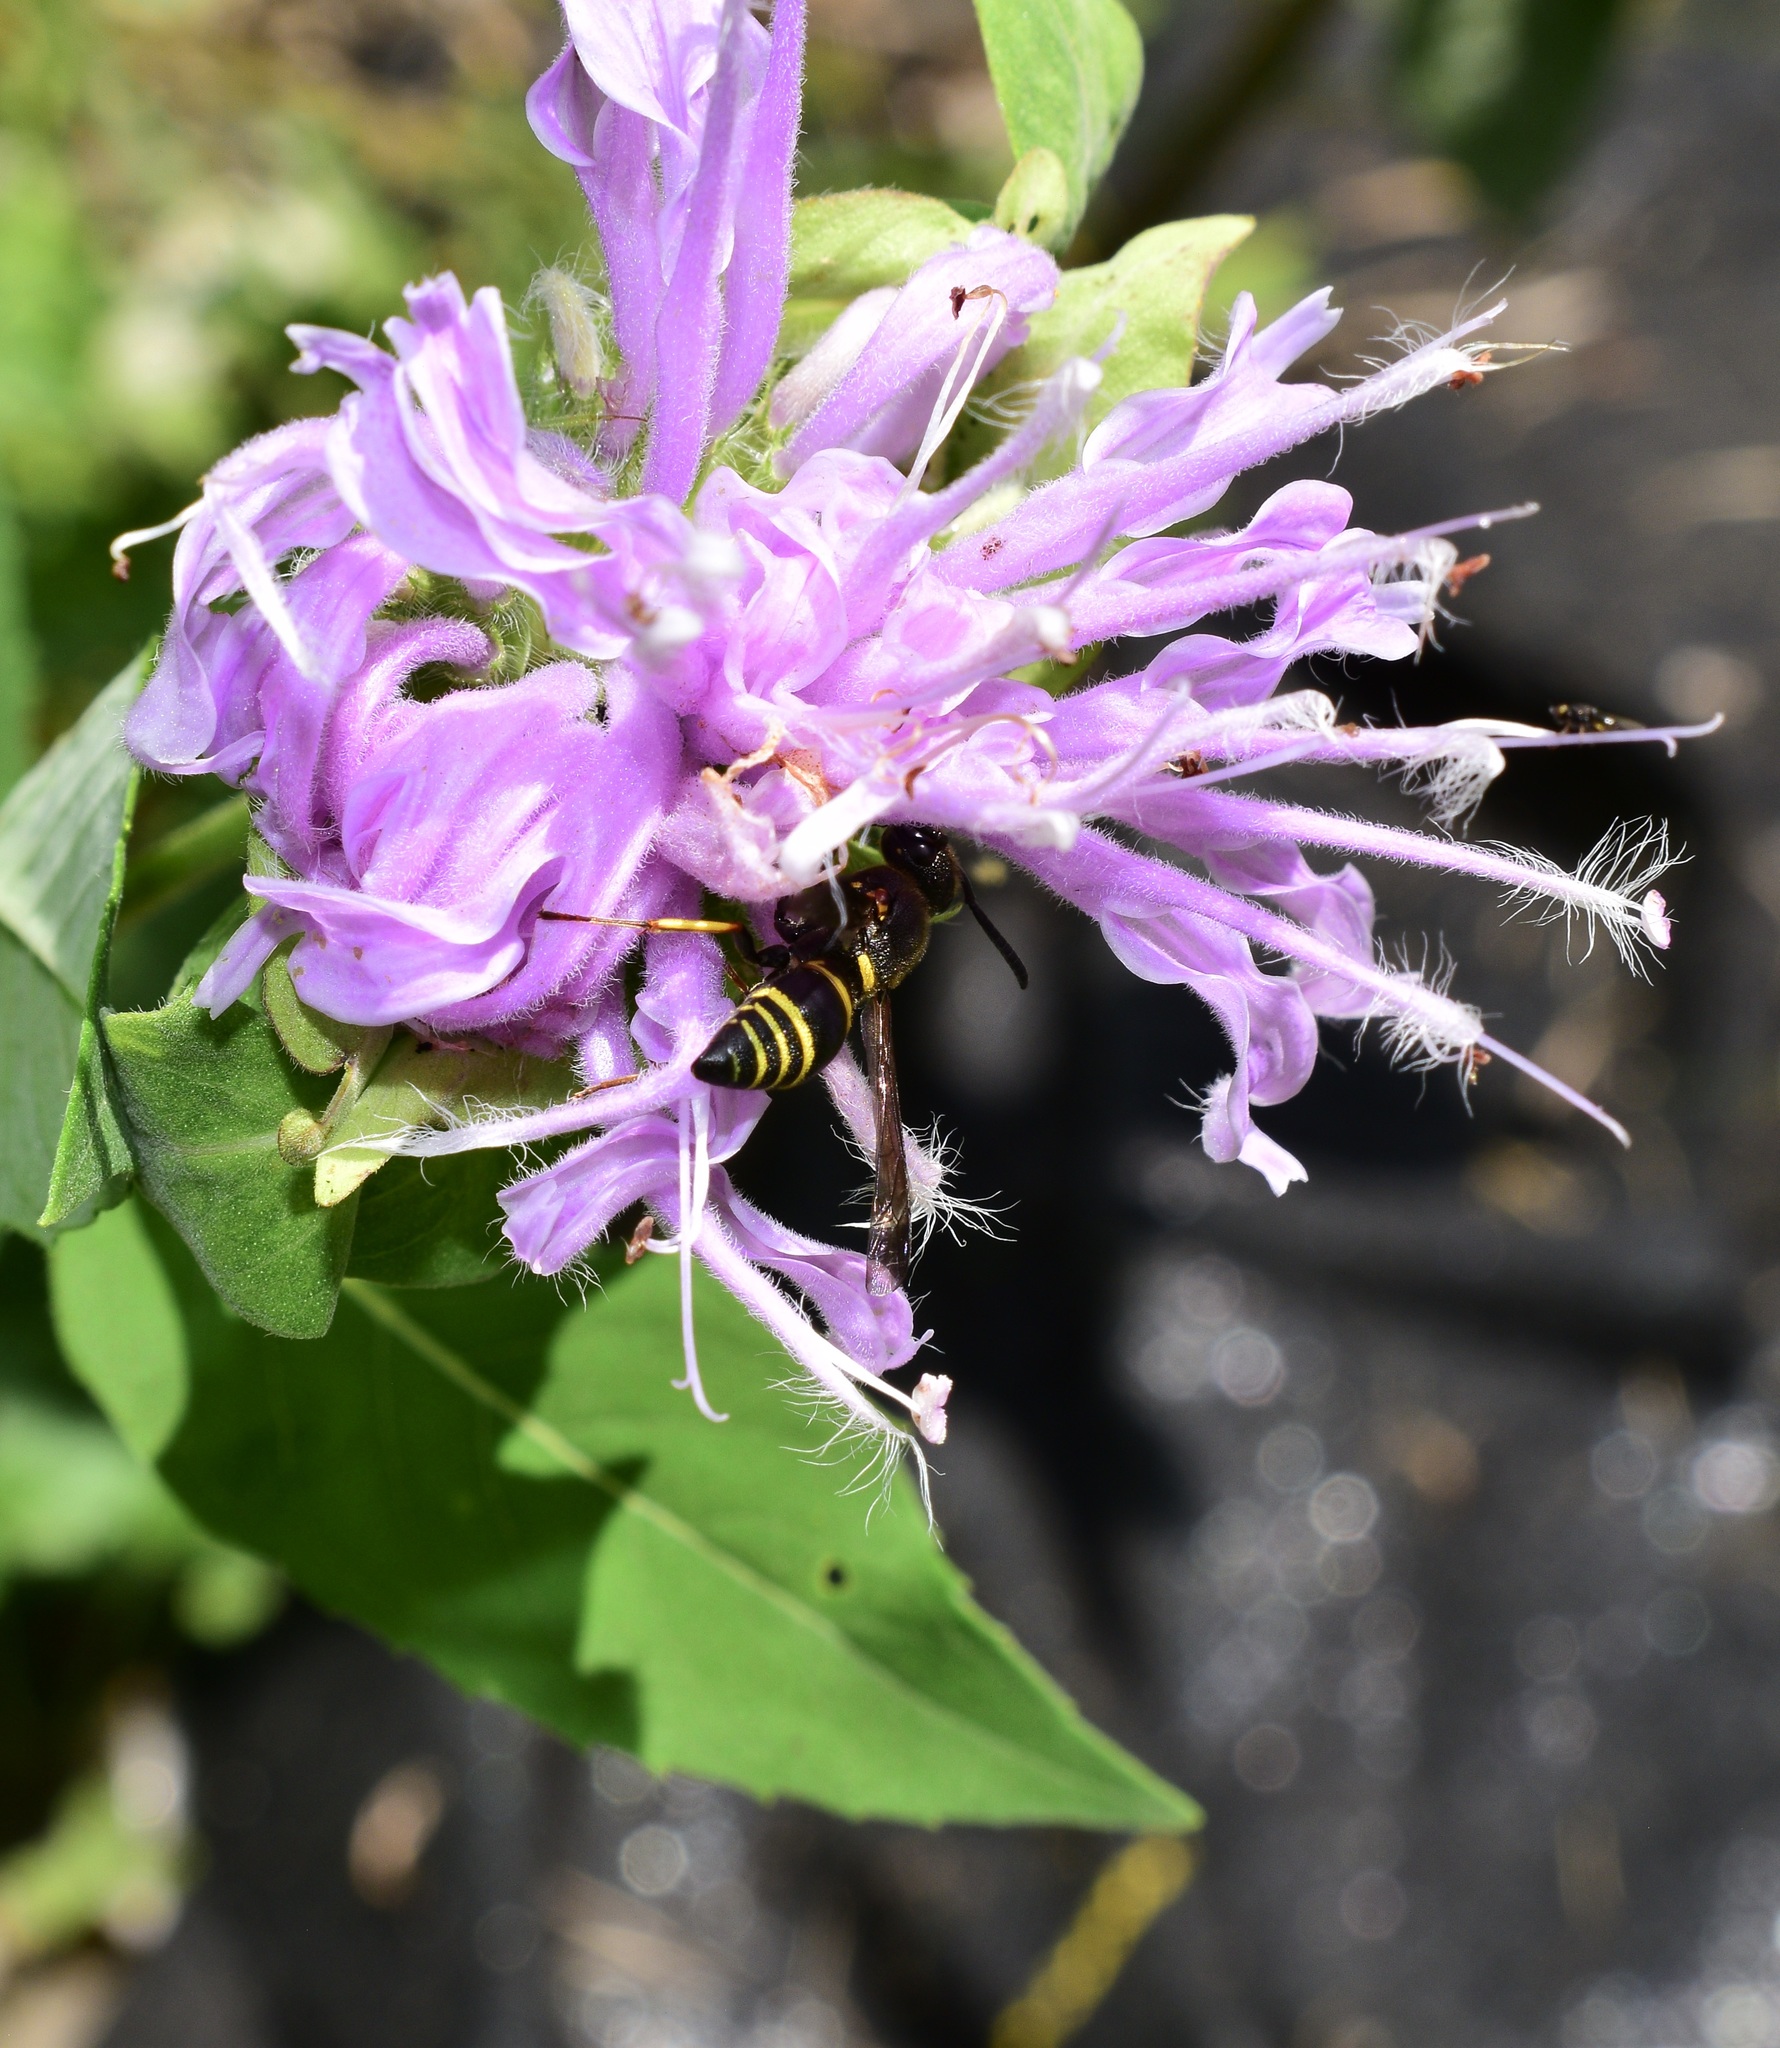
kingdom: Animalia
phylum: Arthropoda
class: Insecta
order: Hymenoptera
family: Eumenidae
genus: Euodynerus
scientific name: Euodynerus foraminatus
